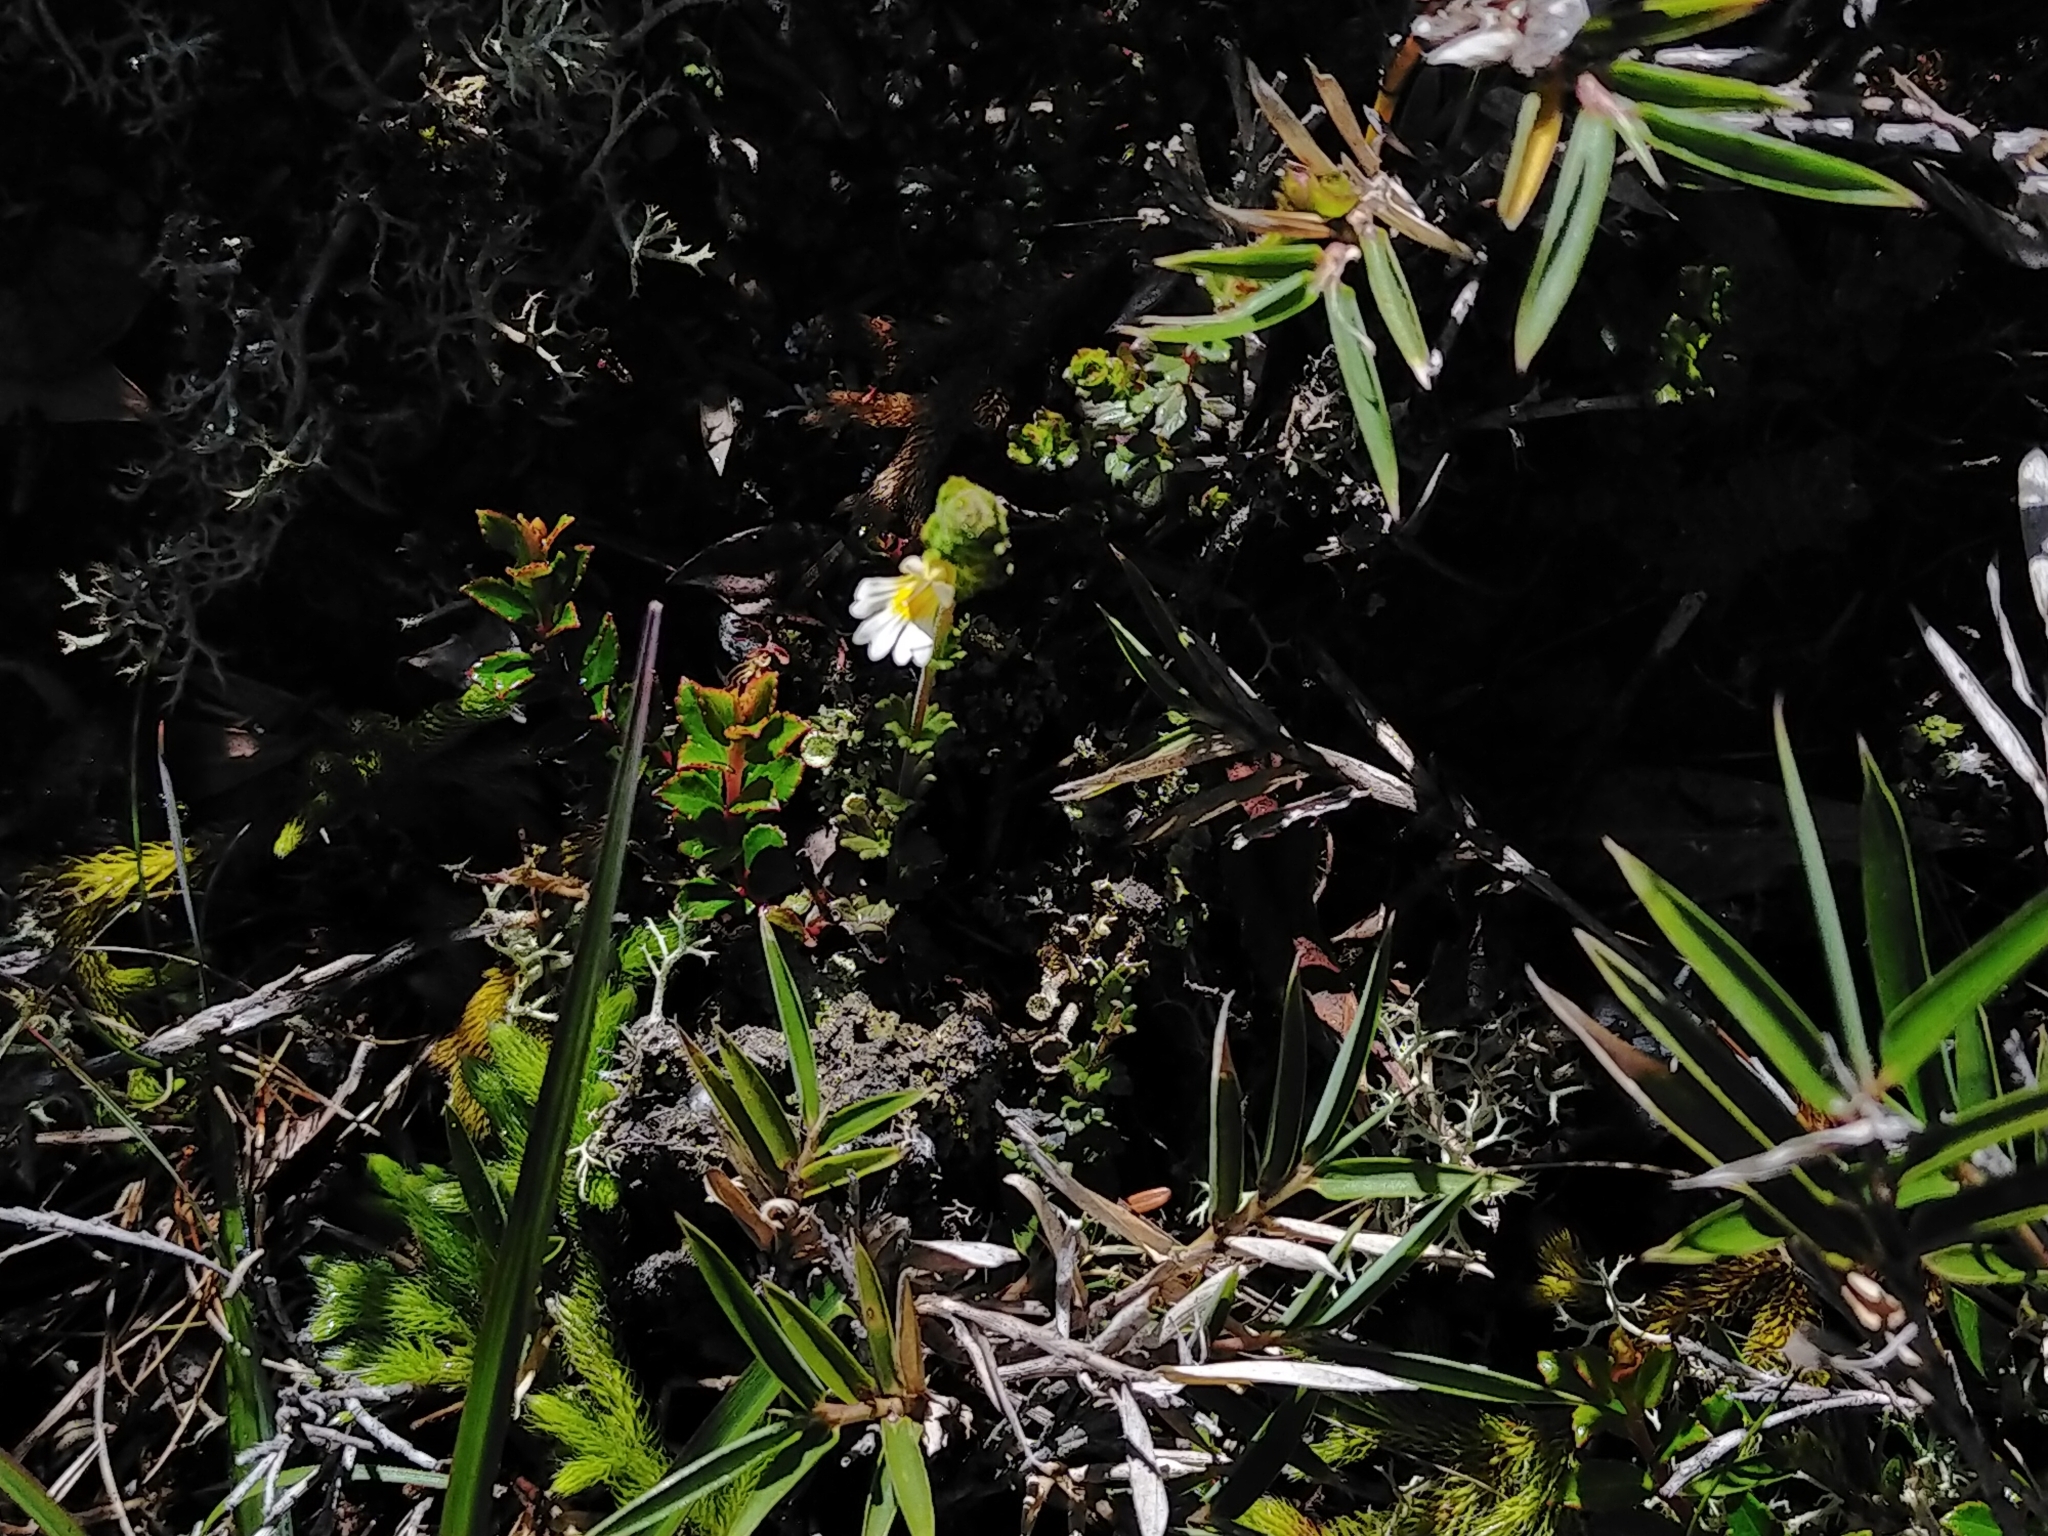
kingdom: Plantae
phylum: Tracheophyta
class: Magnoliopsida
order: Lamiales
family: Orobanchaceae
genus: Euphrasia
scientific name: Euphrasia transmorrisonensis
